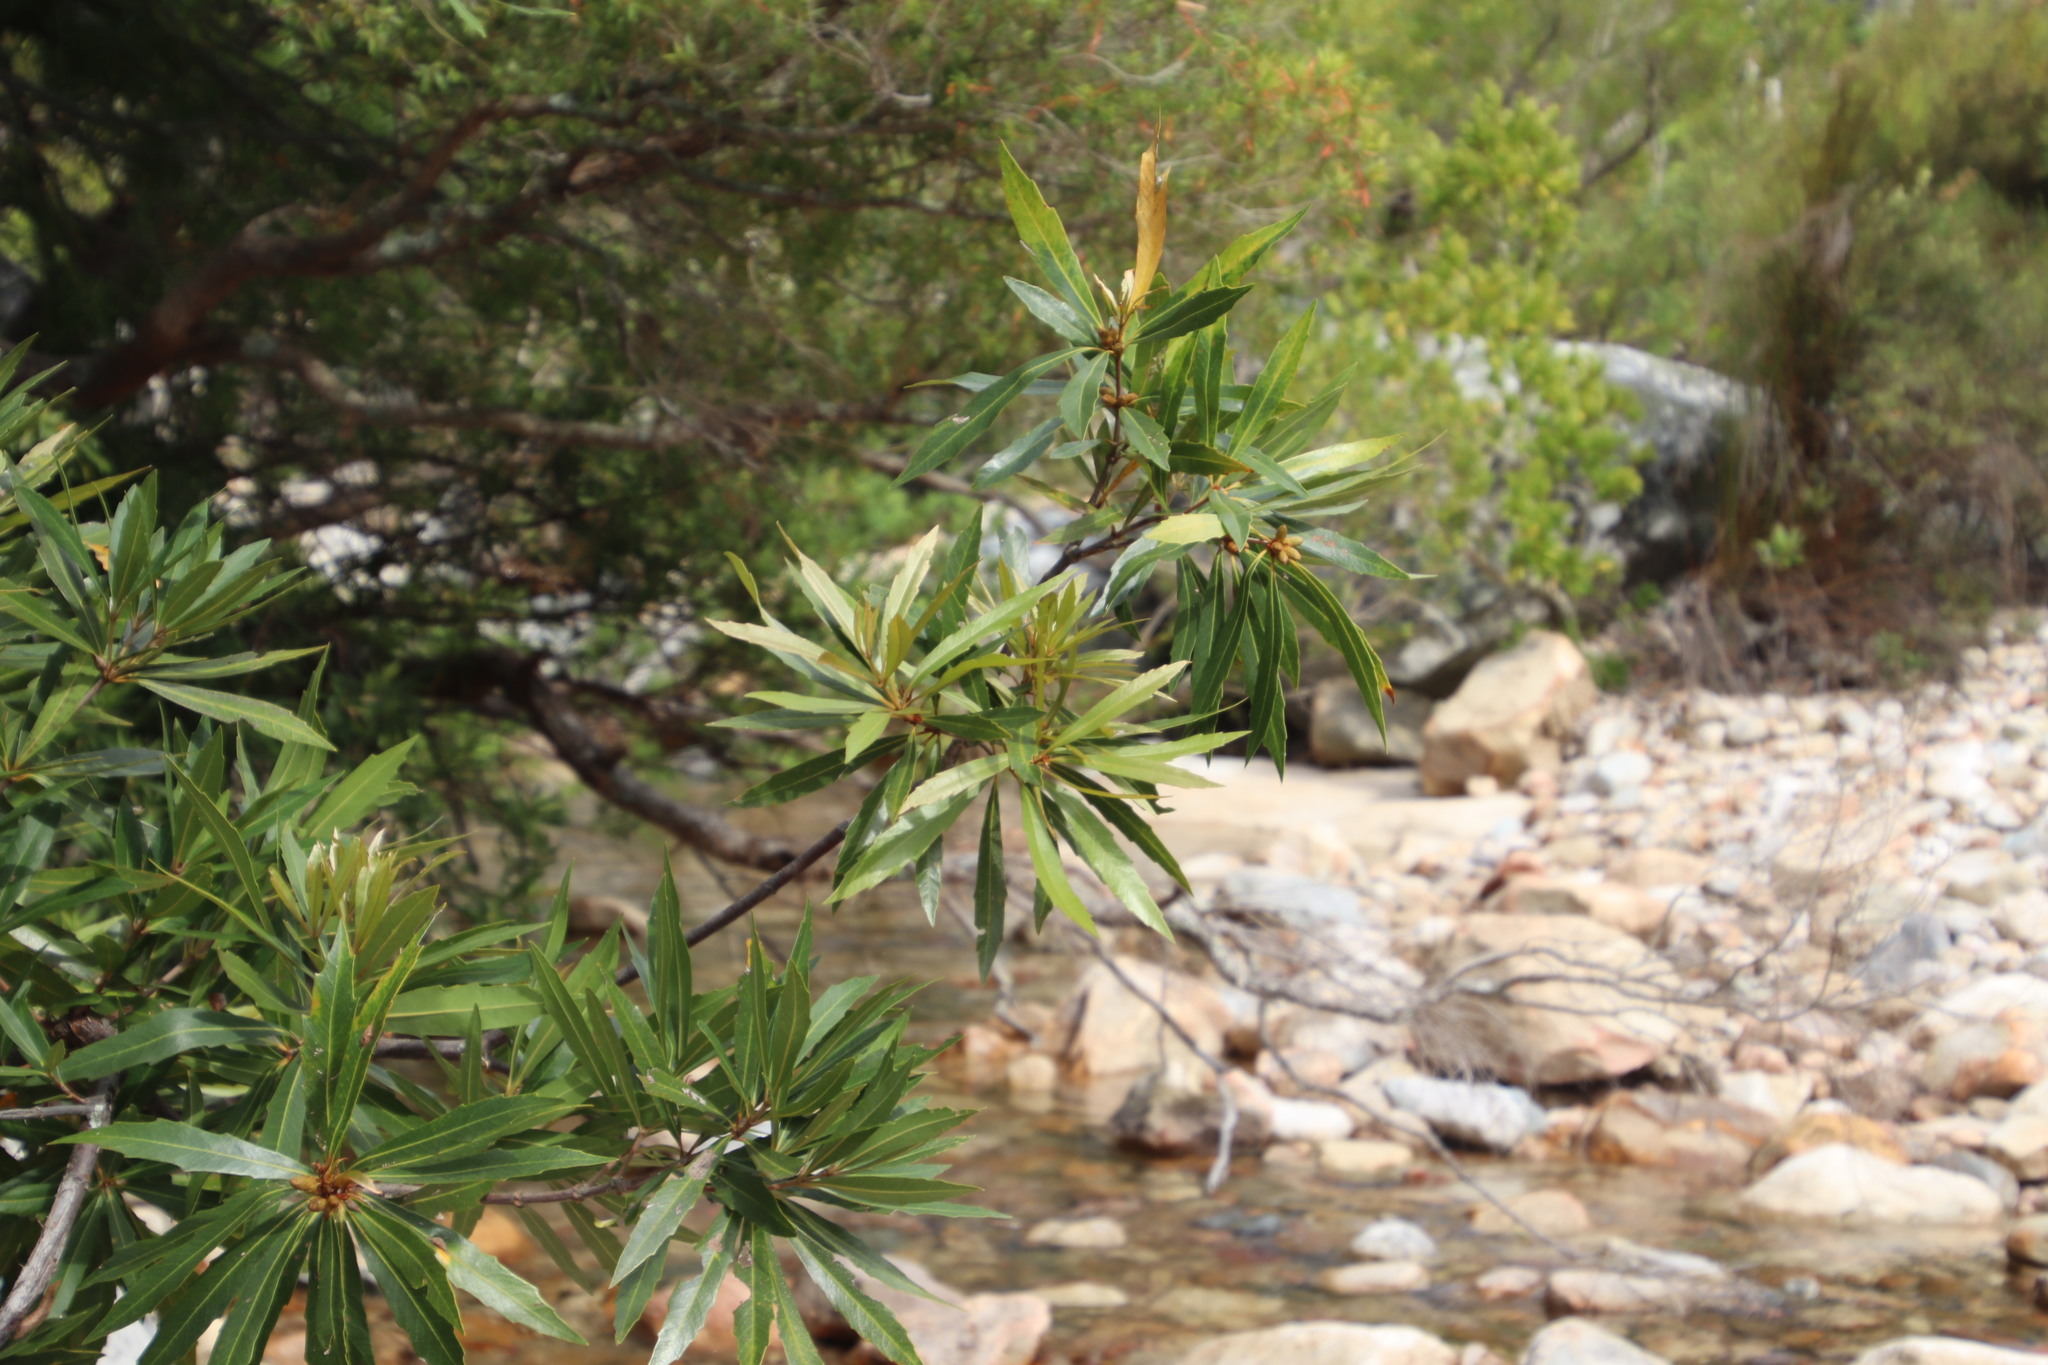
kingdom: Plantae
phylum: Tracheophyta
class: Magnoliopsida
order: Proteales
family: Proteaceae
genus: Brabejum
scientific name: Brabejum stellatifolium
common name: Wild almond
